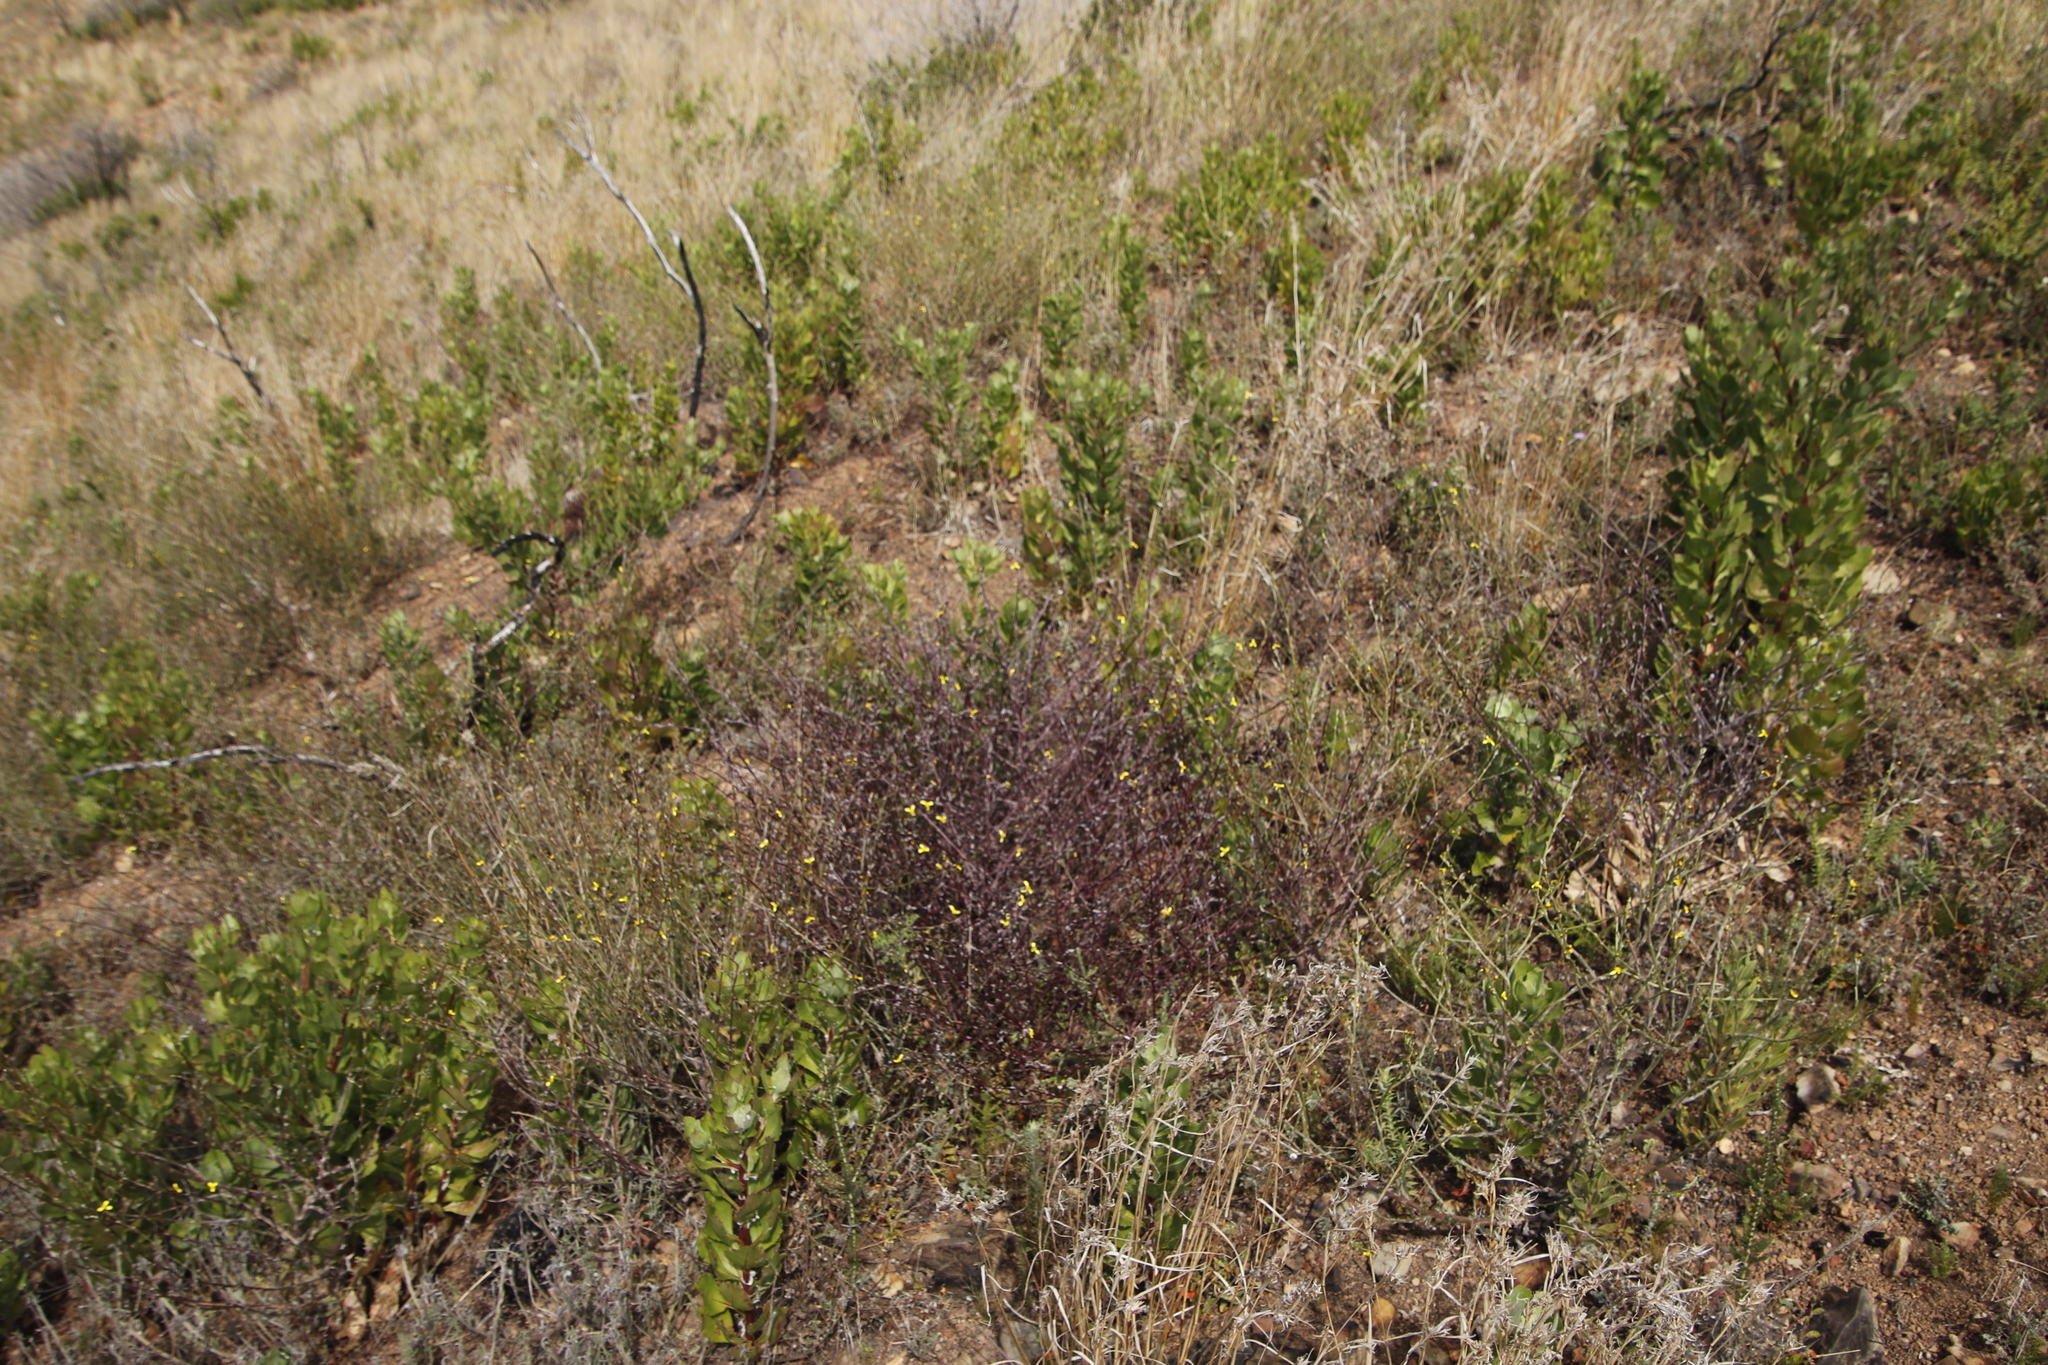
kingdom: Plantae
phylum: Tracheophyta
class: Magnoliopsida
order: Asterales
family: Asteraceae
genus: Senecio
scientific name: Senecio pubigerus
